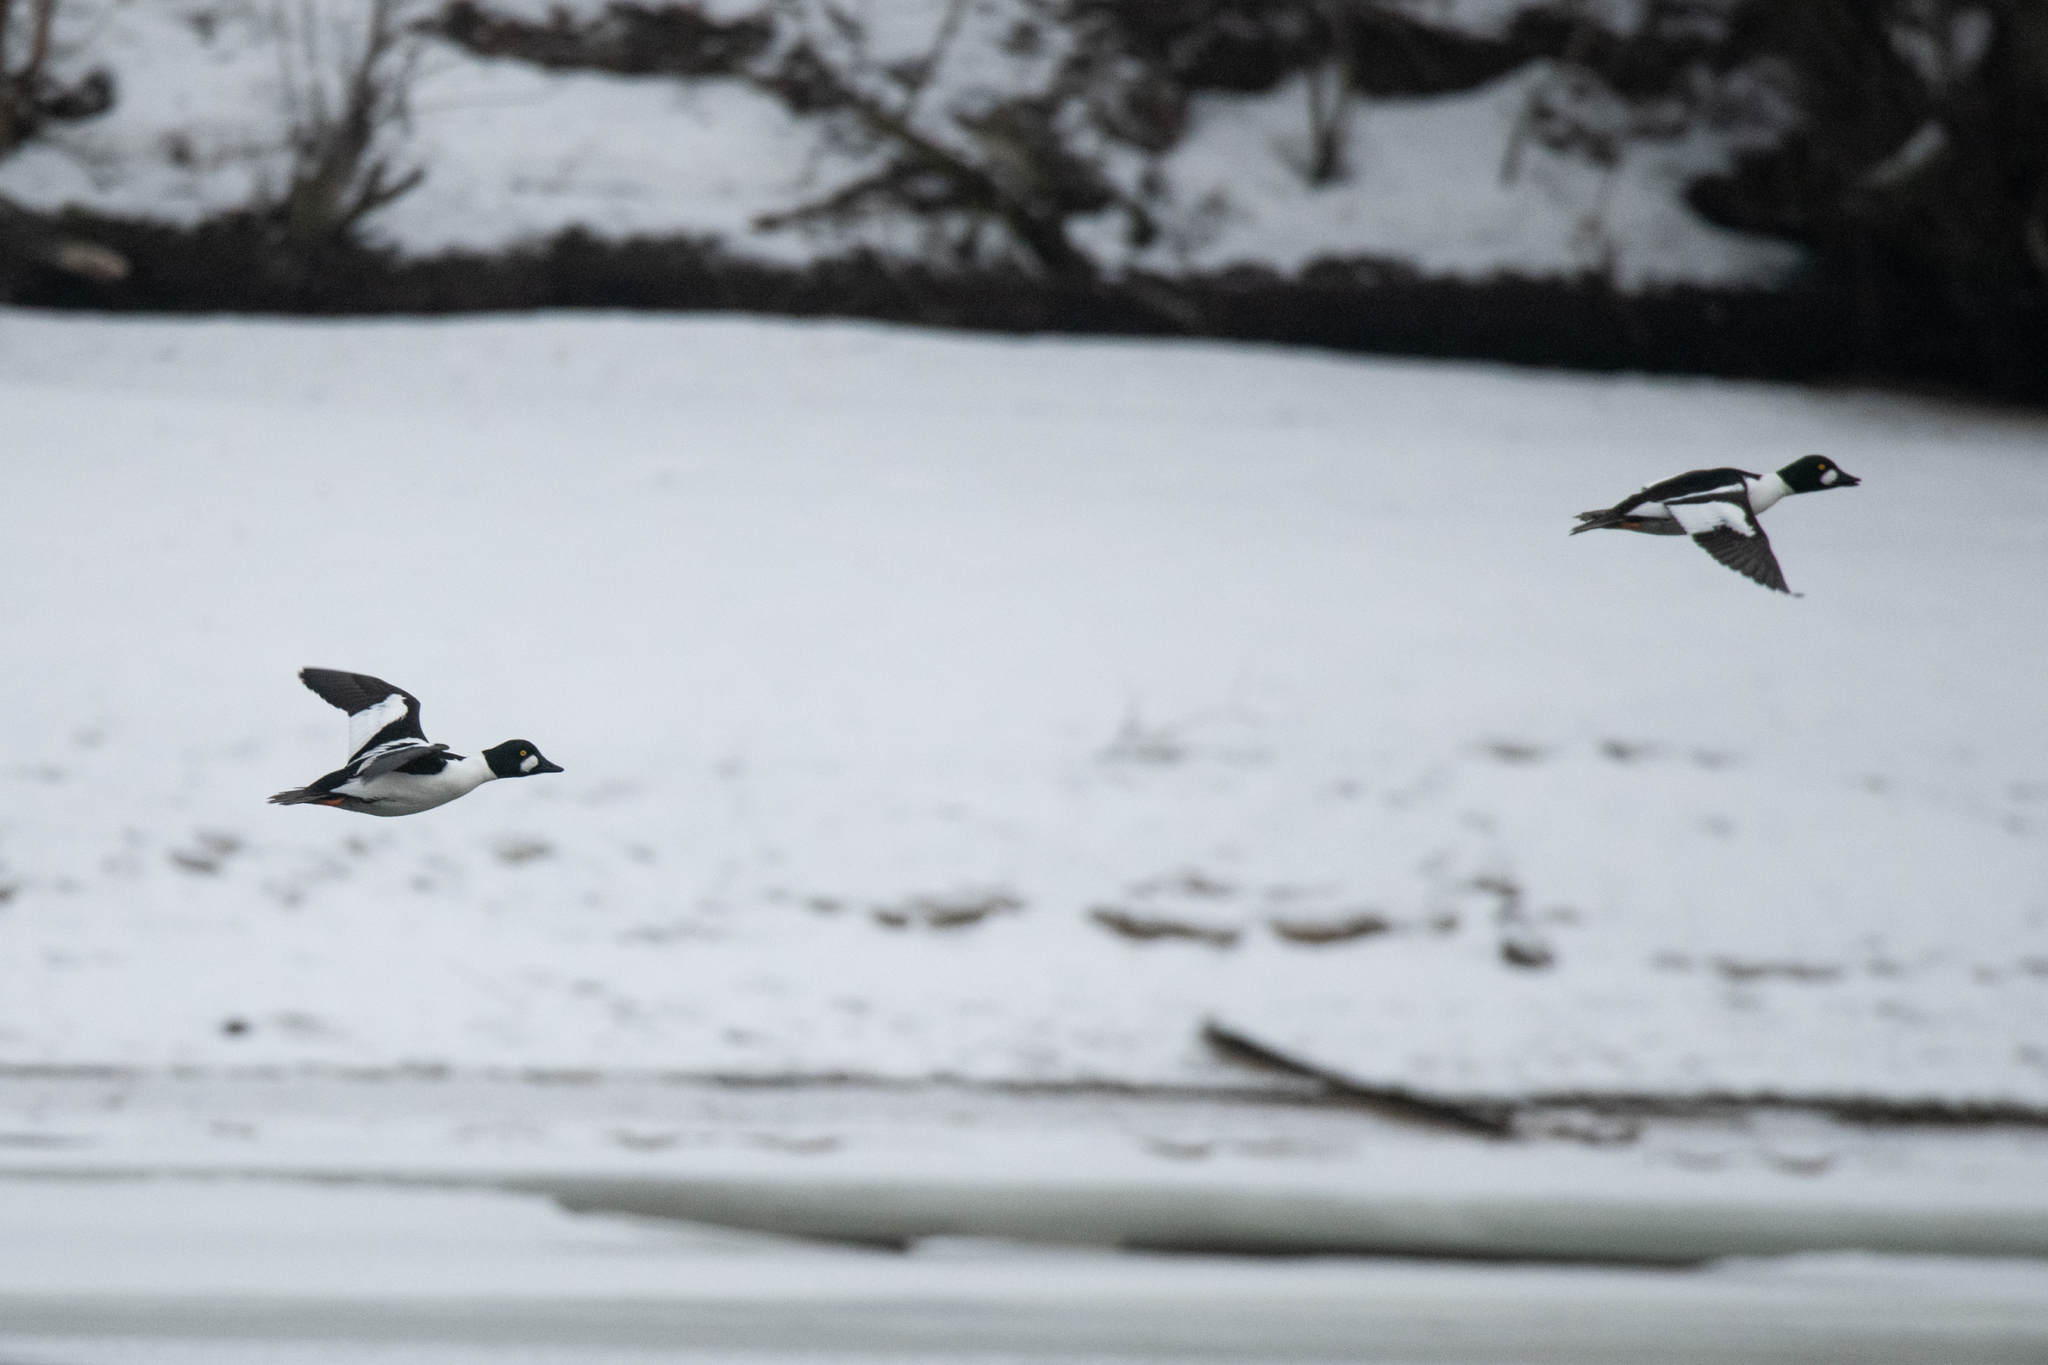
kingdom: Animalia
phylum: Chordata
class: Aves
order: Anseriformes
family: Anatidae
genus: Bucephala
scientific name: Bucephala clangula
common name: Common goldeneye
